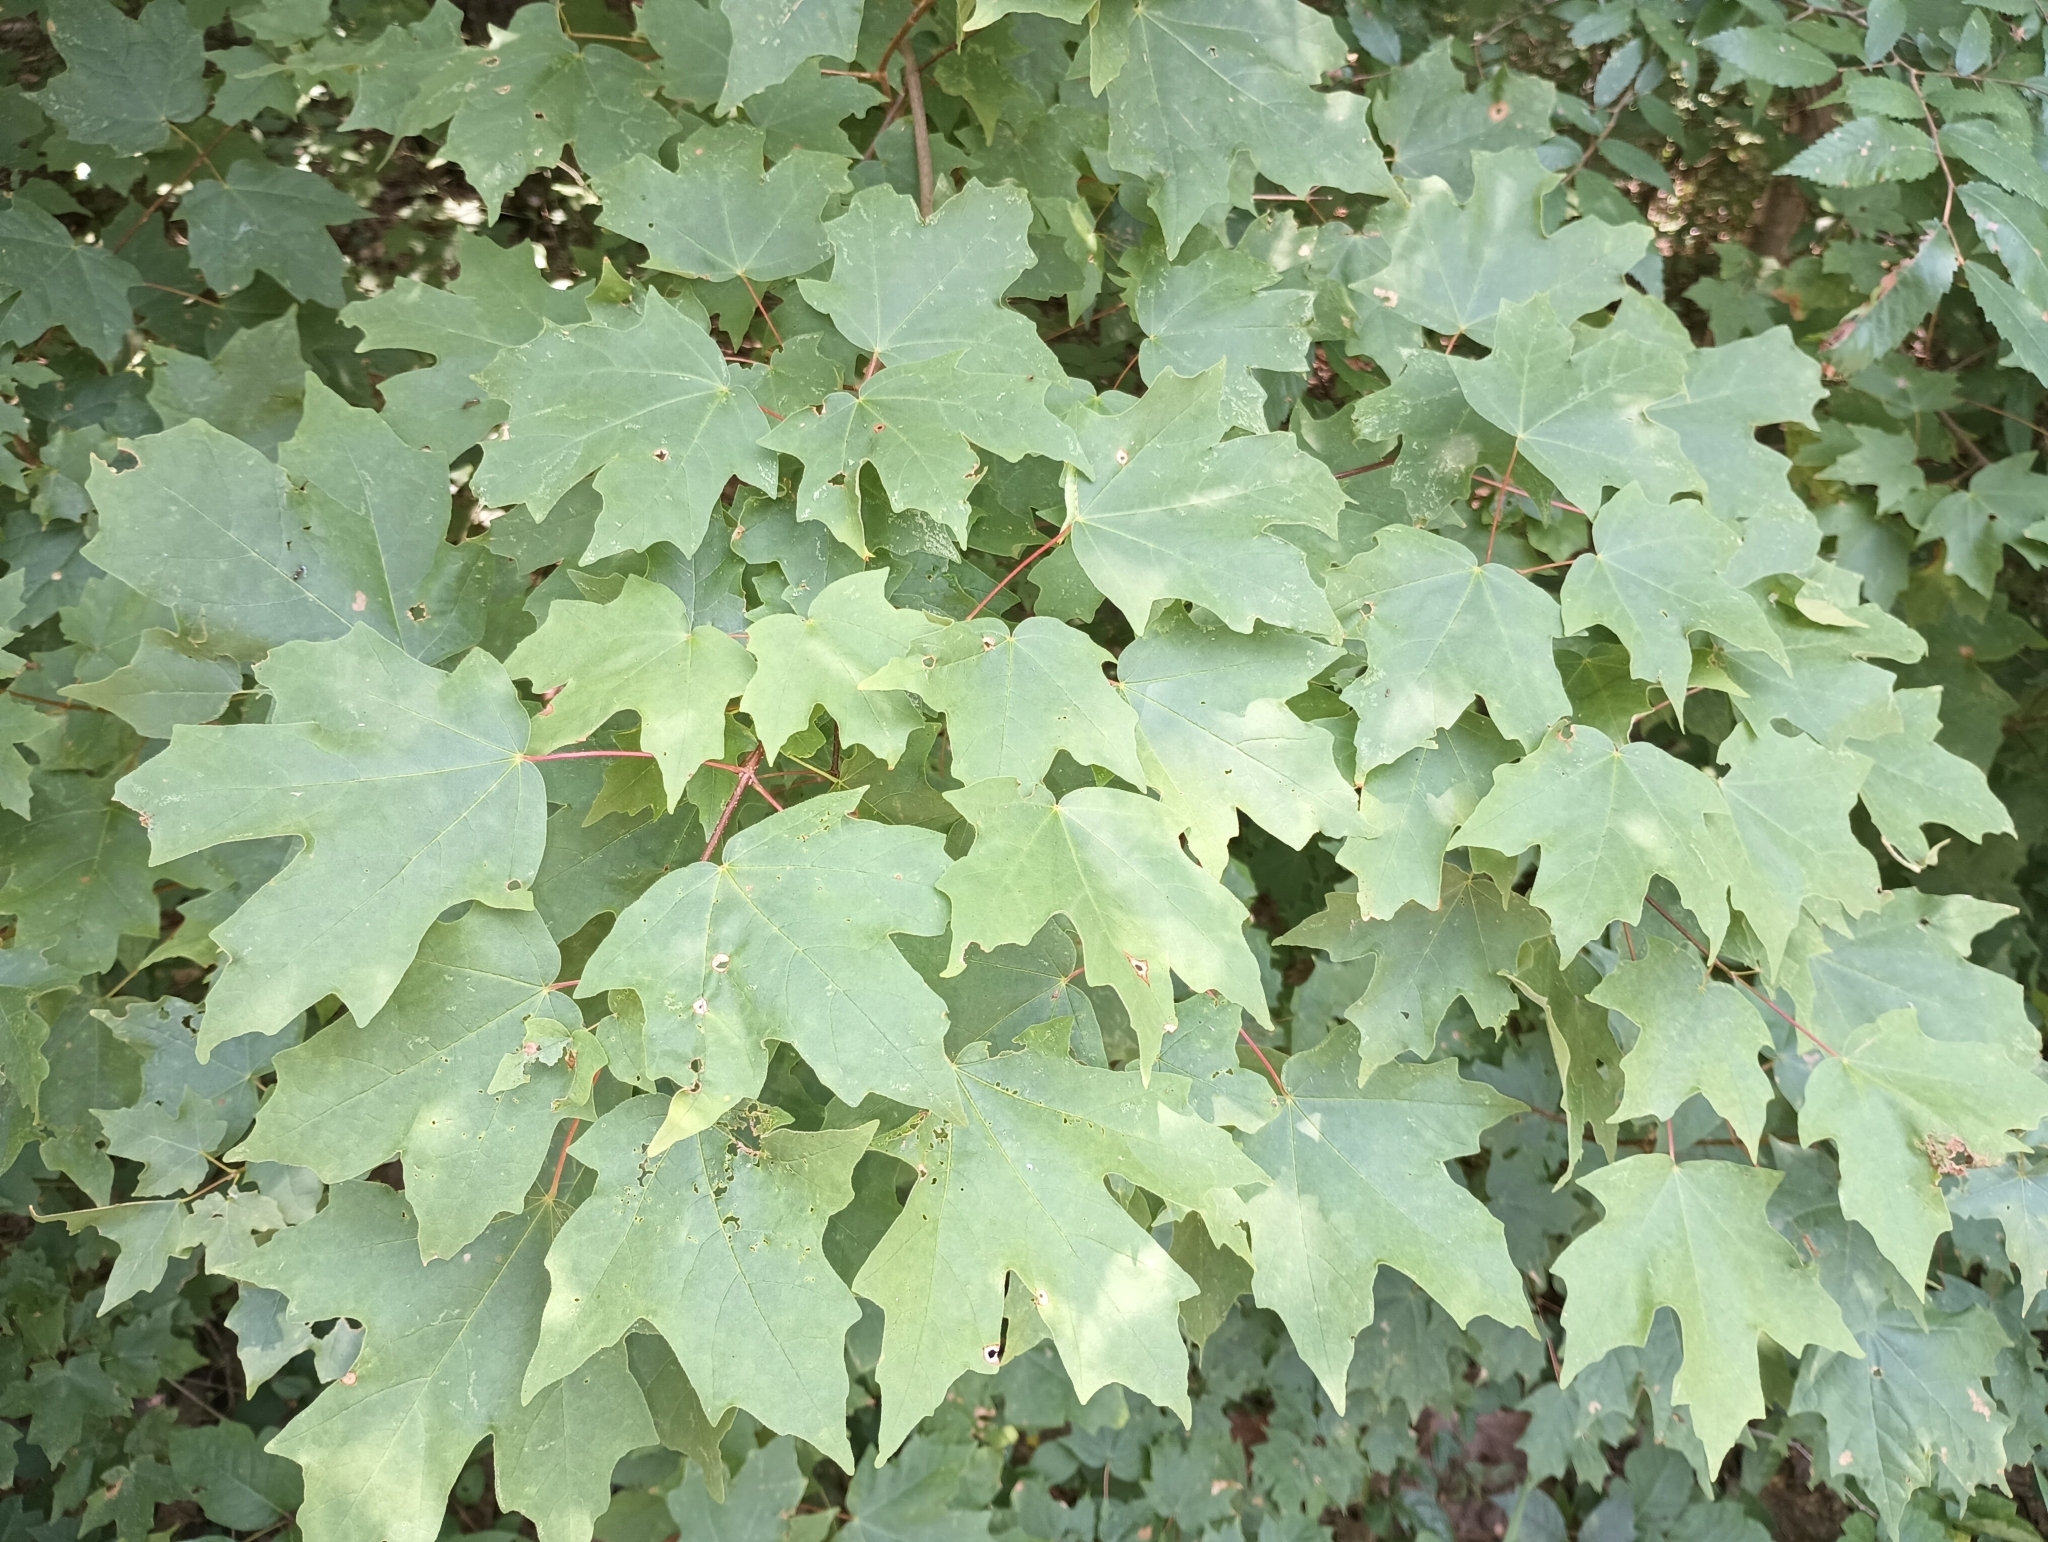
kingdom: Plantae
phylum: Tracheophyta
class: Magnoliopsida
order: Sapindales
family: Sapindaceae
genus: Acer
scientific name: Acer saccharum
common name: Sugar maple
